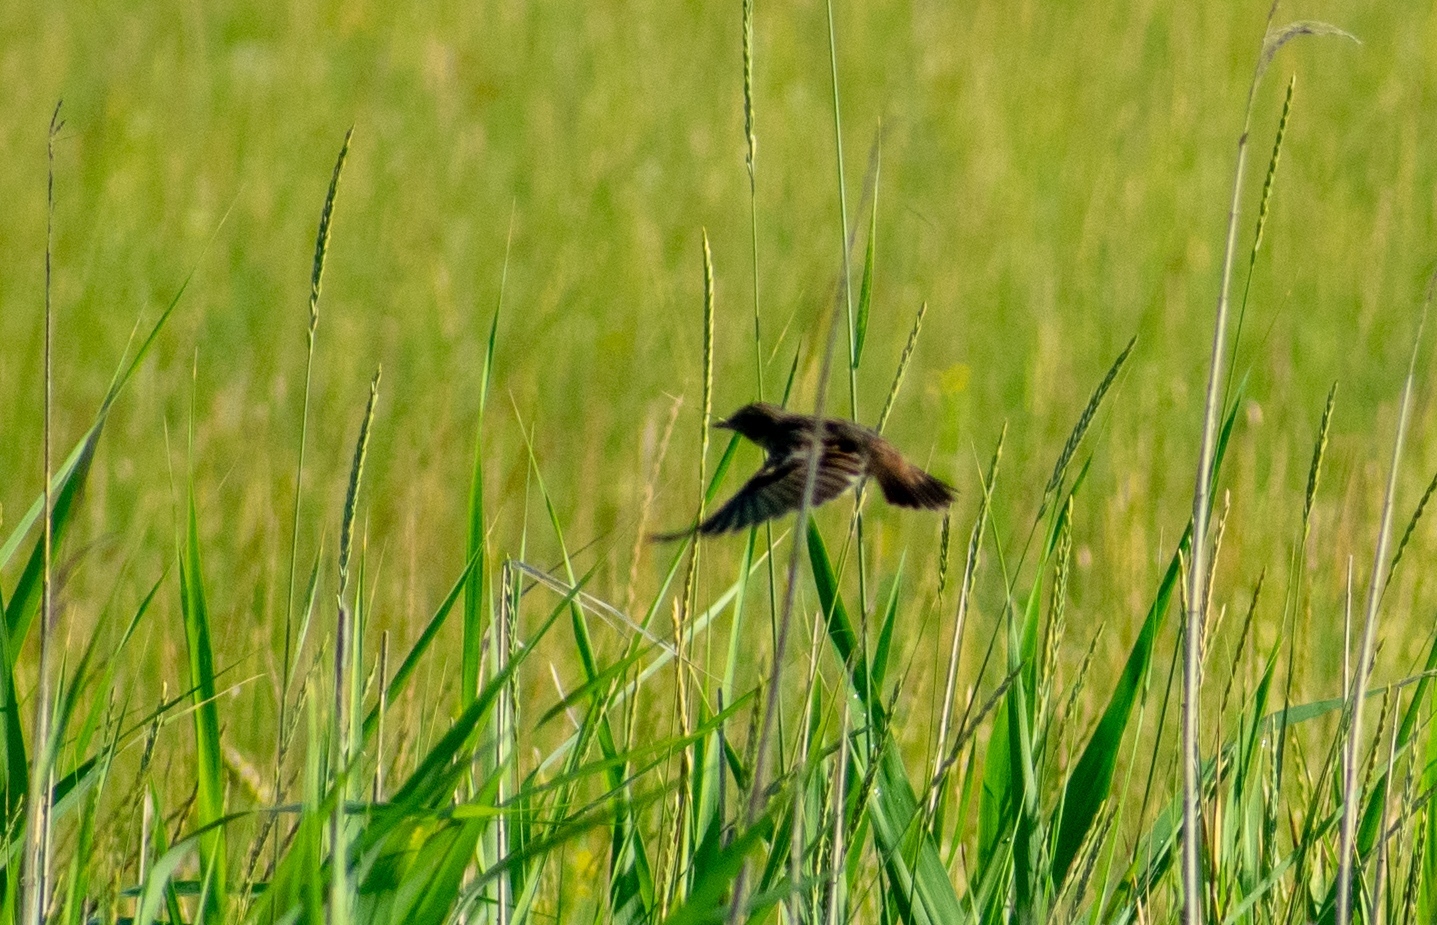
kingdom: Animalia
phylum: Chordata
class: Aves
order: Passeriformes
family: Muscicapidae
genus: Saxicola
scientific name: Saxicola rubicola
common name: European stonechat
